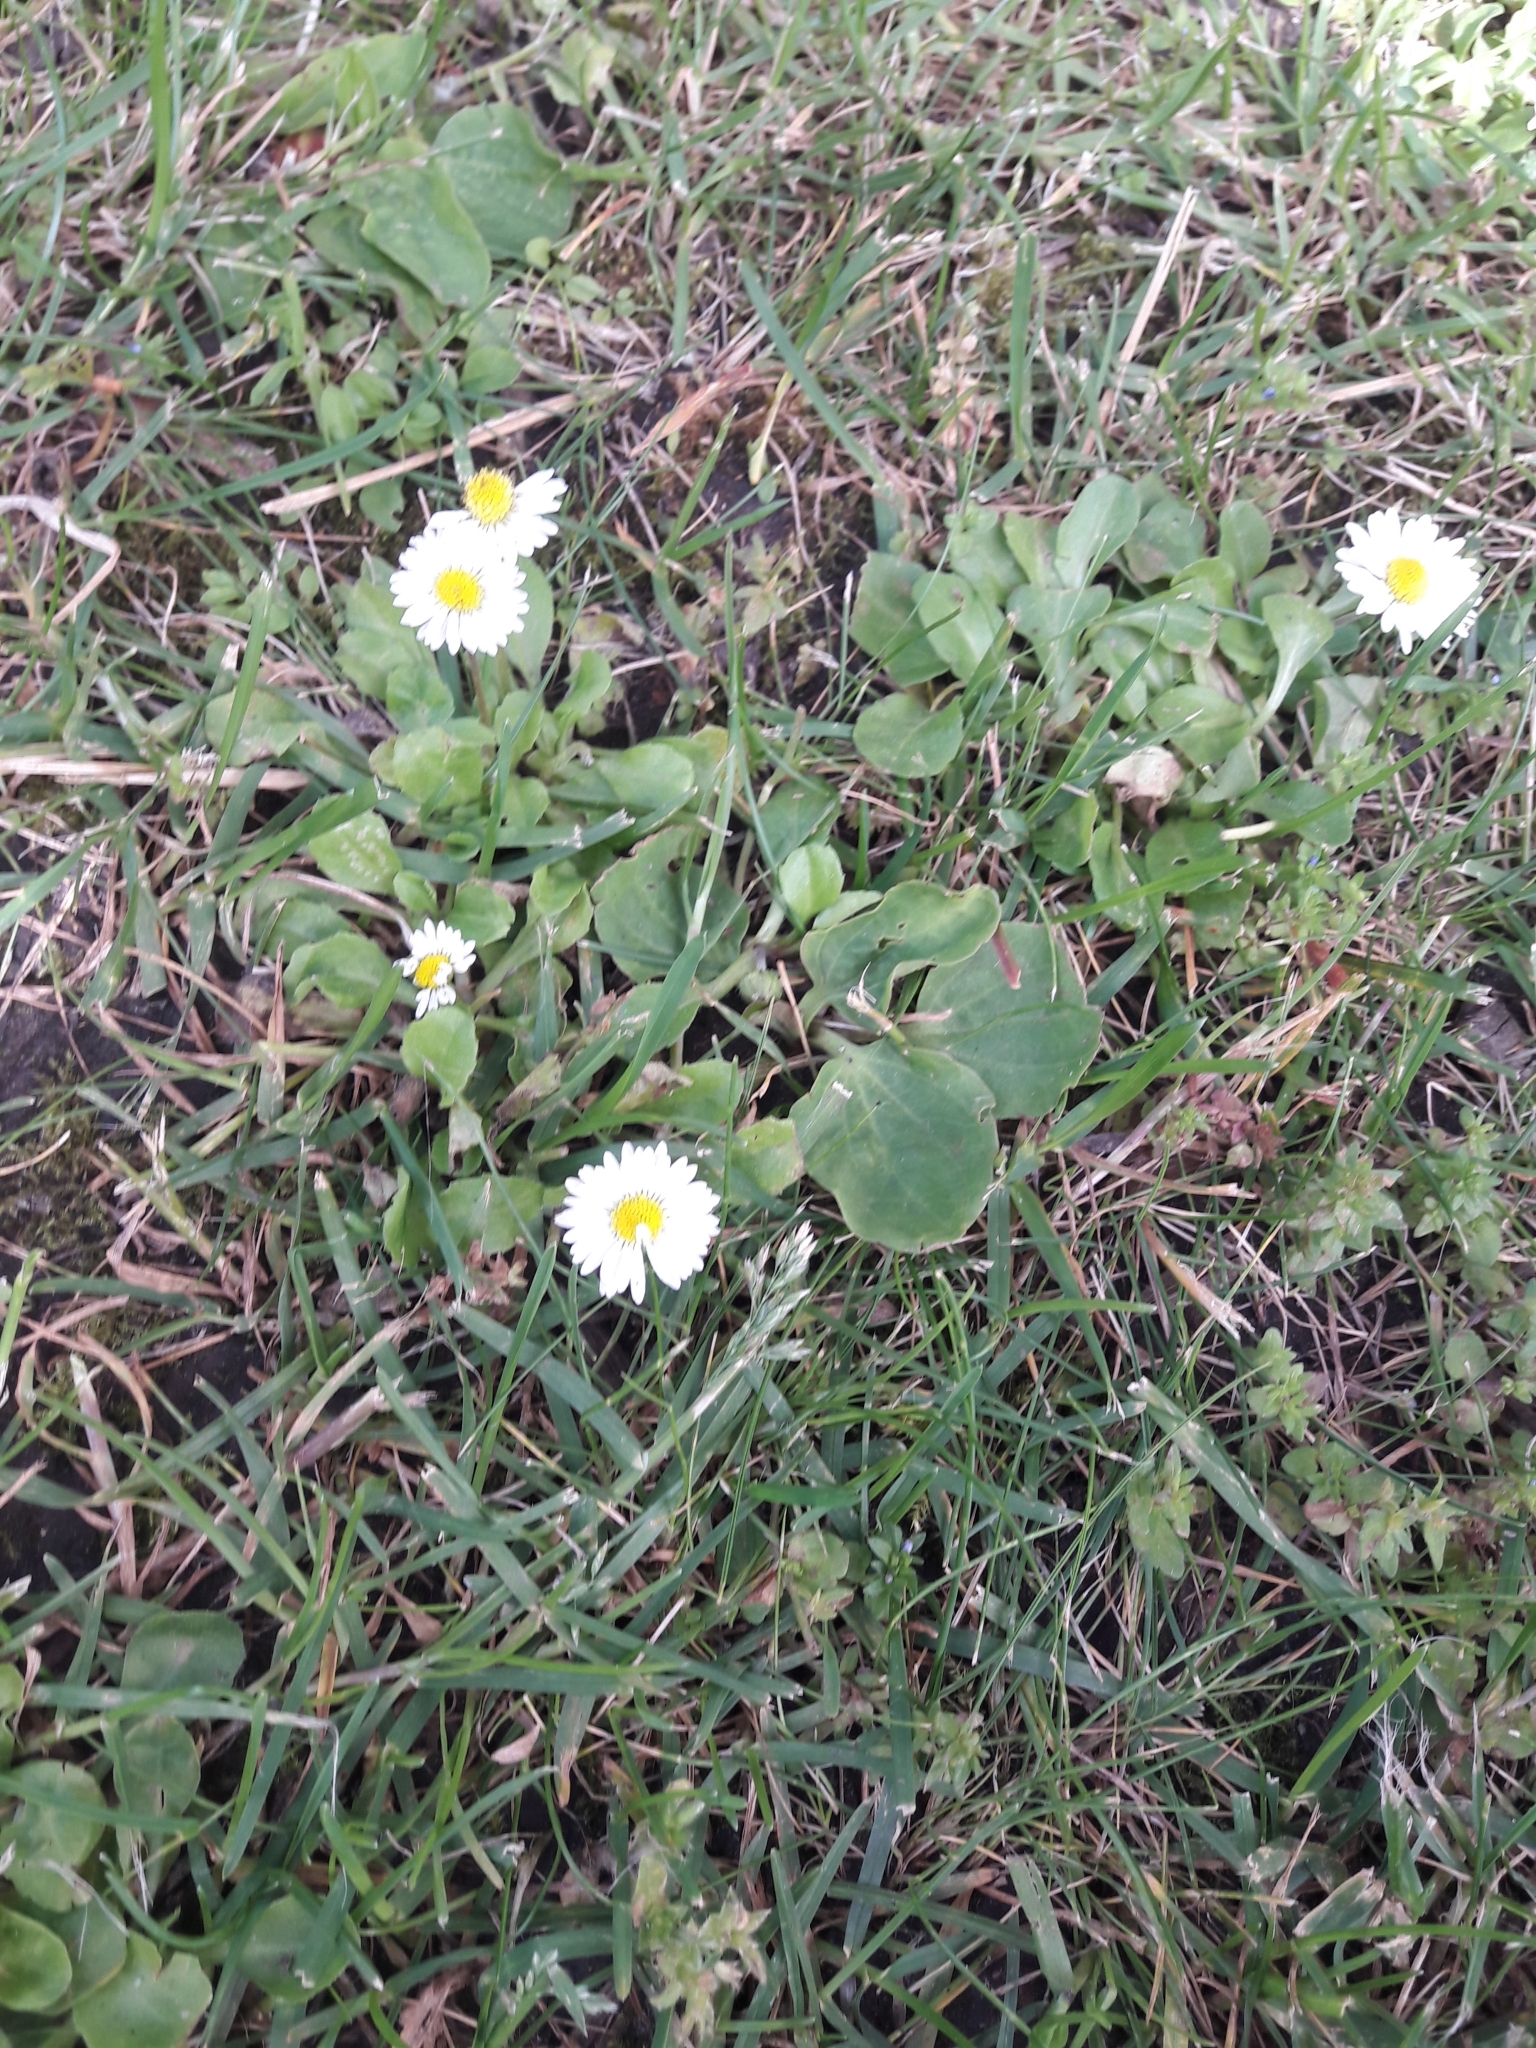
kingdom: Plantae
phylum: Tracheophyta
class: Magnoliopsida
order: Asterales
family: Asteraceae
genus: Bellis
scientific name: Bellis perennis
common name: Lawndaisy
